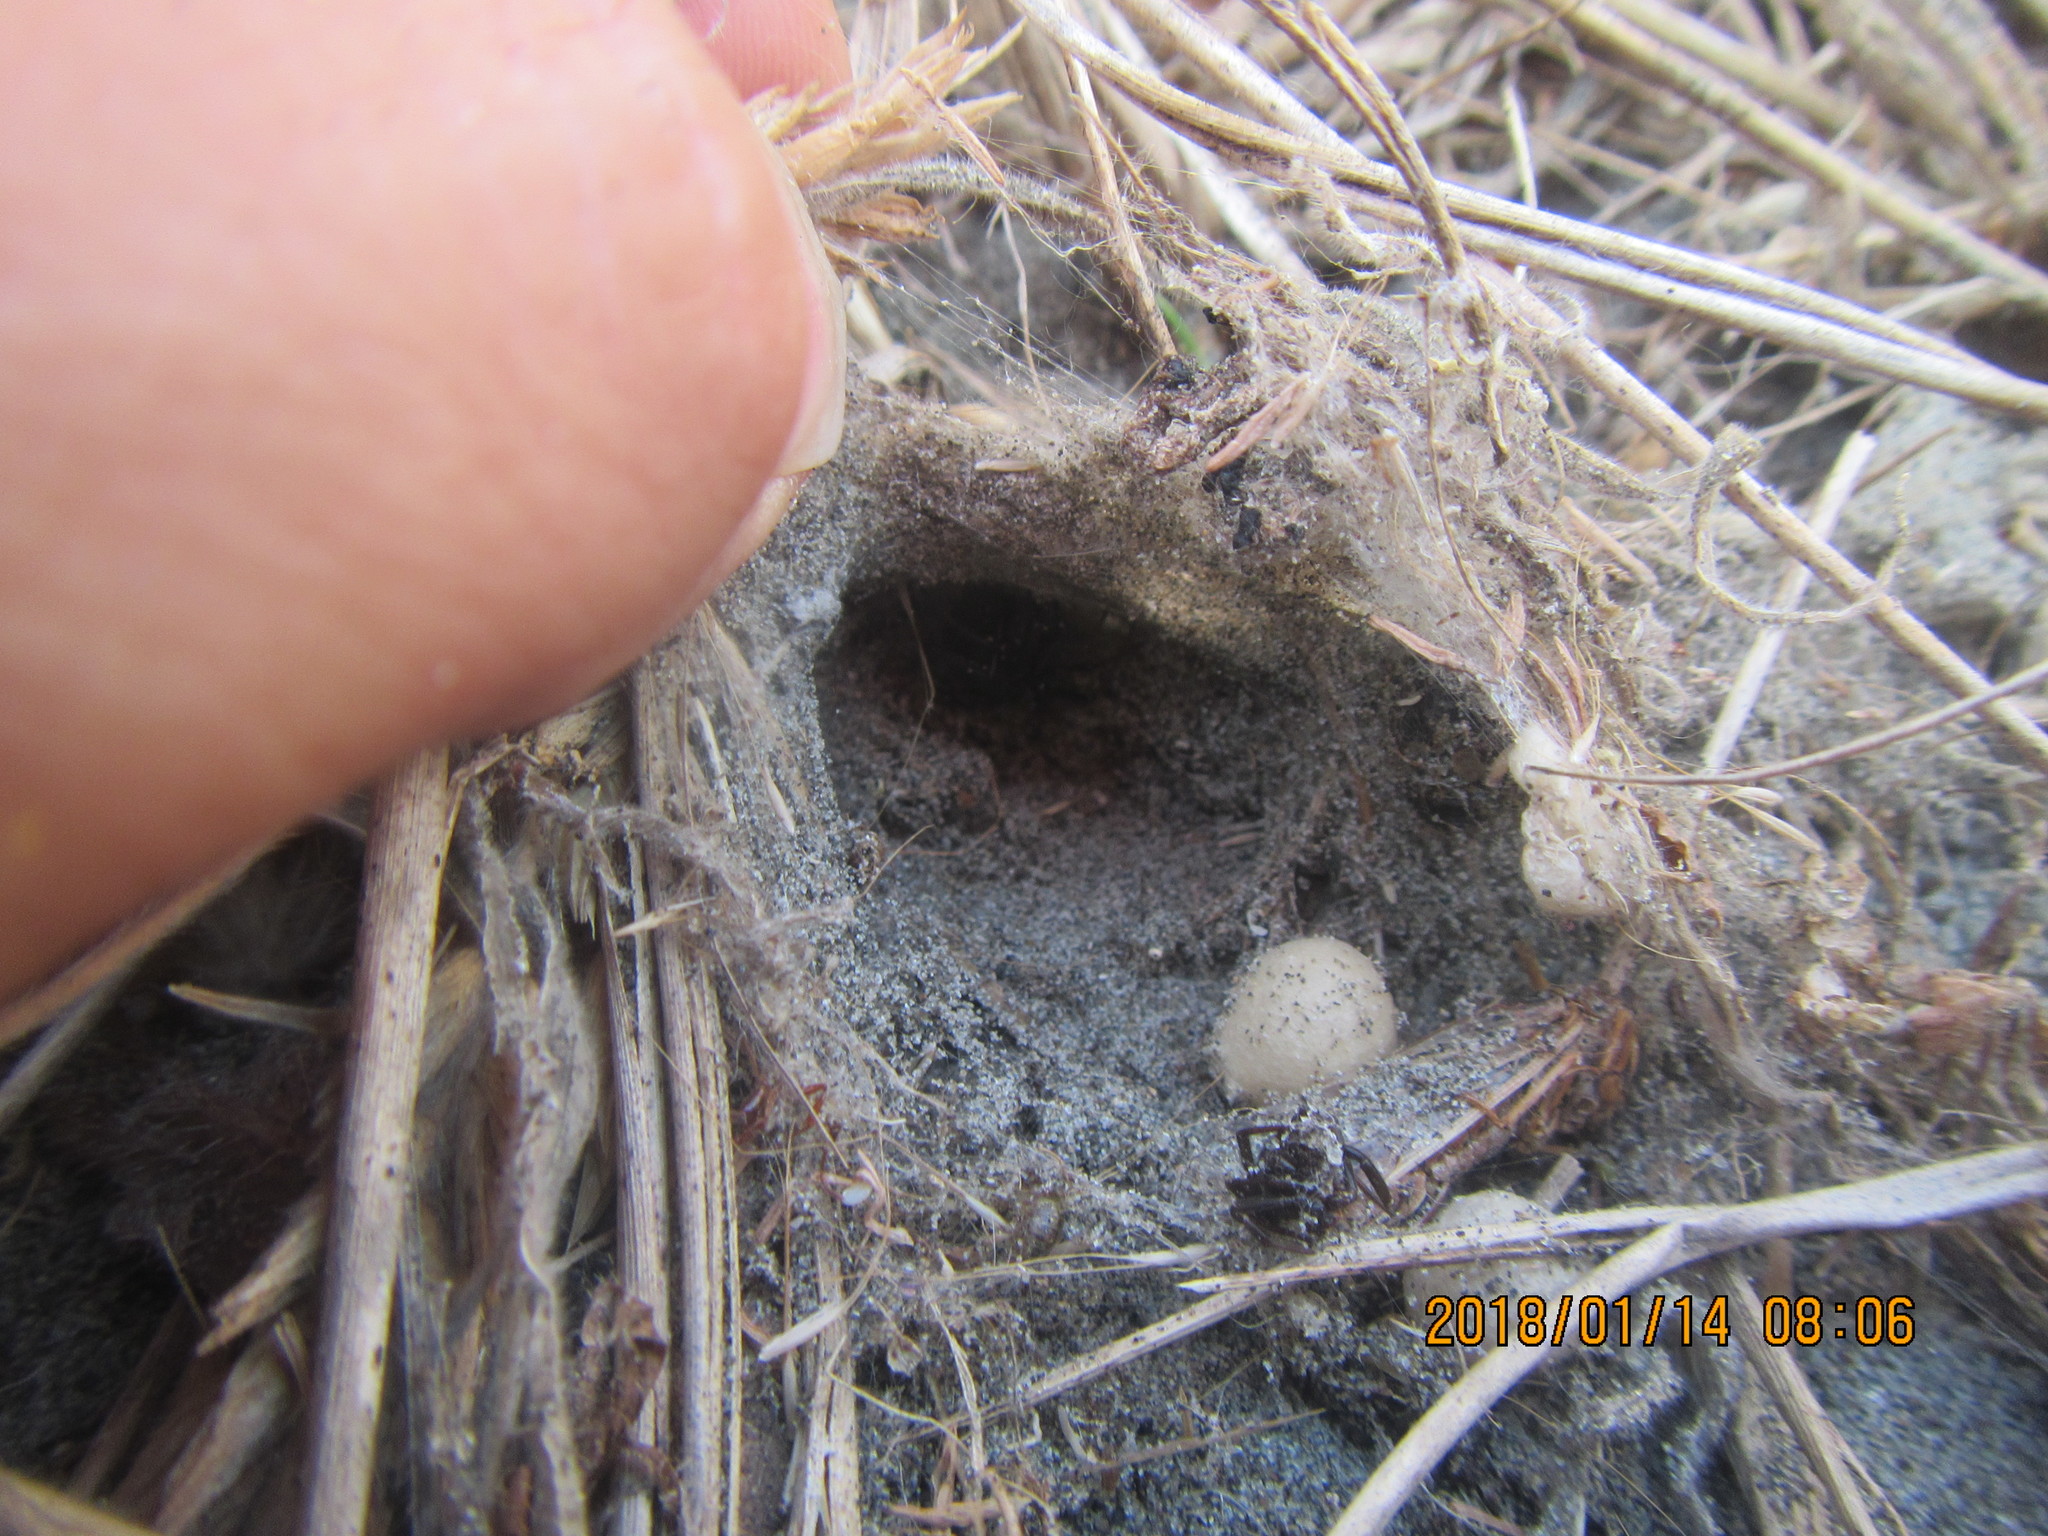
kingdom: Animalia
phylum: Arthropoda
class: Arachnida
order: Araneae
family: Theridiidae
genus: Latrodectus
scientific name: Latrodectus katipo
